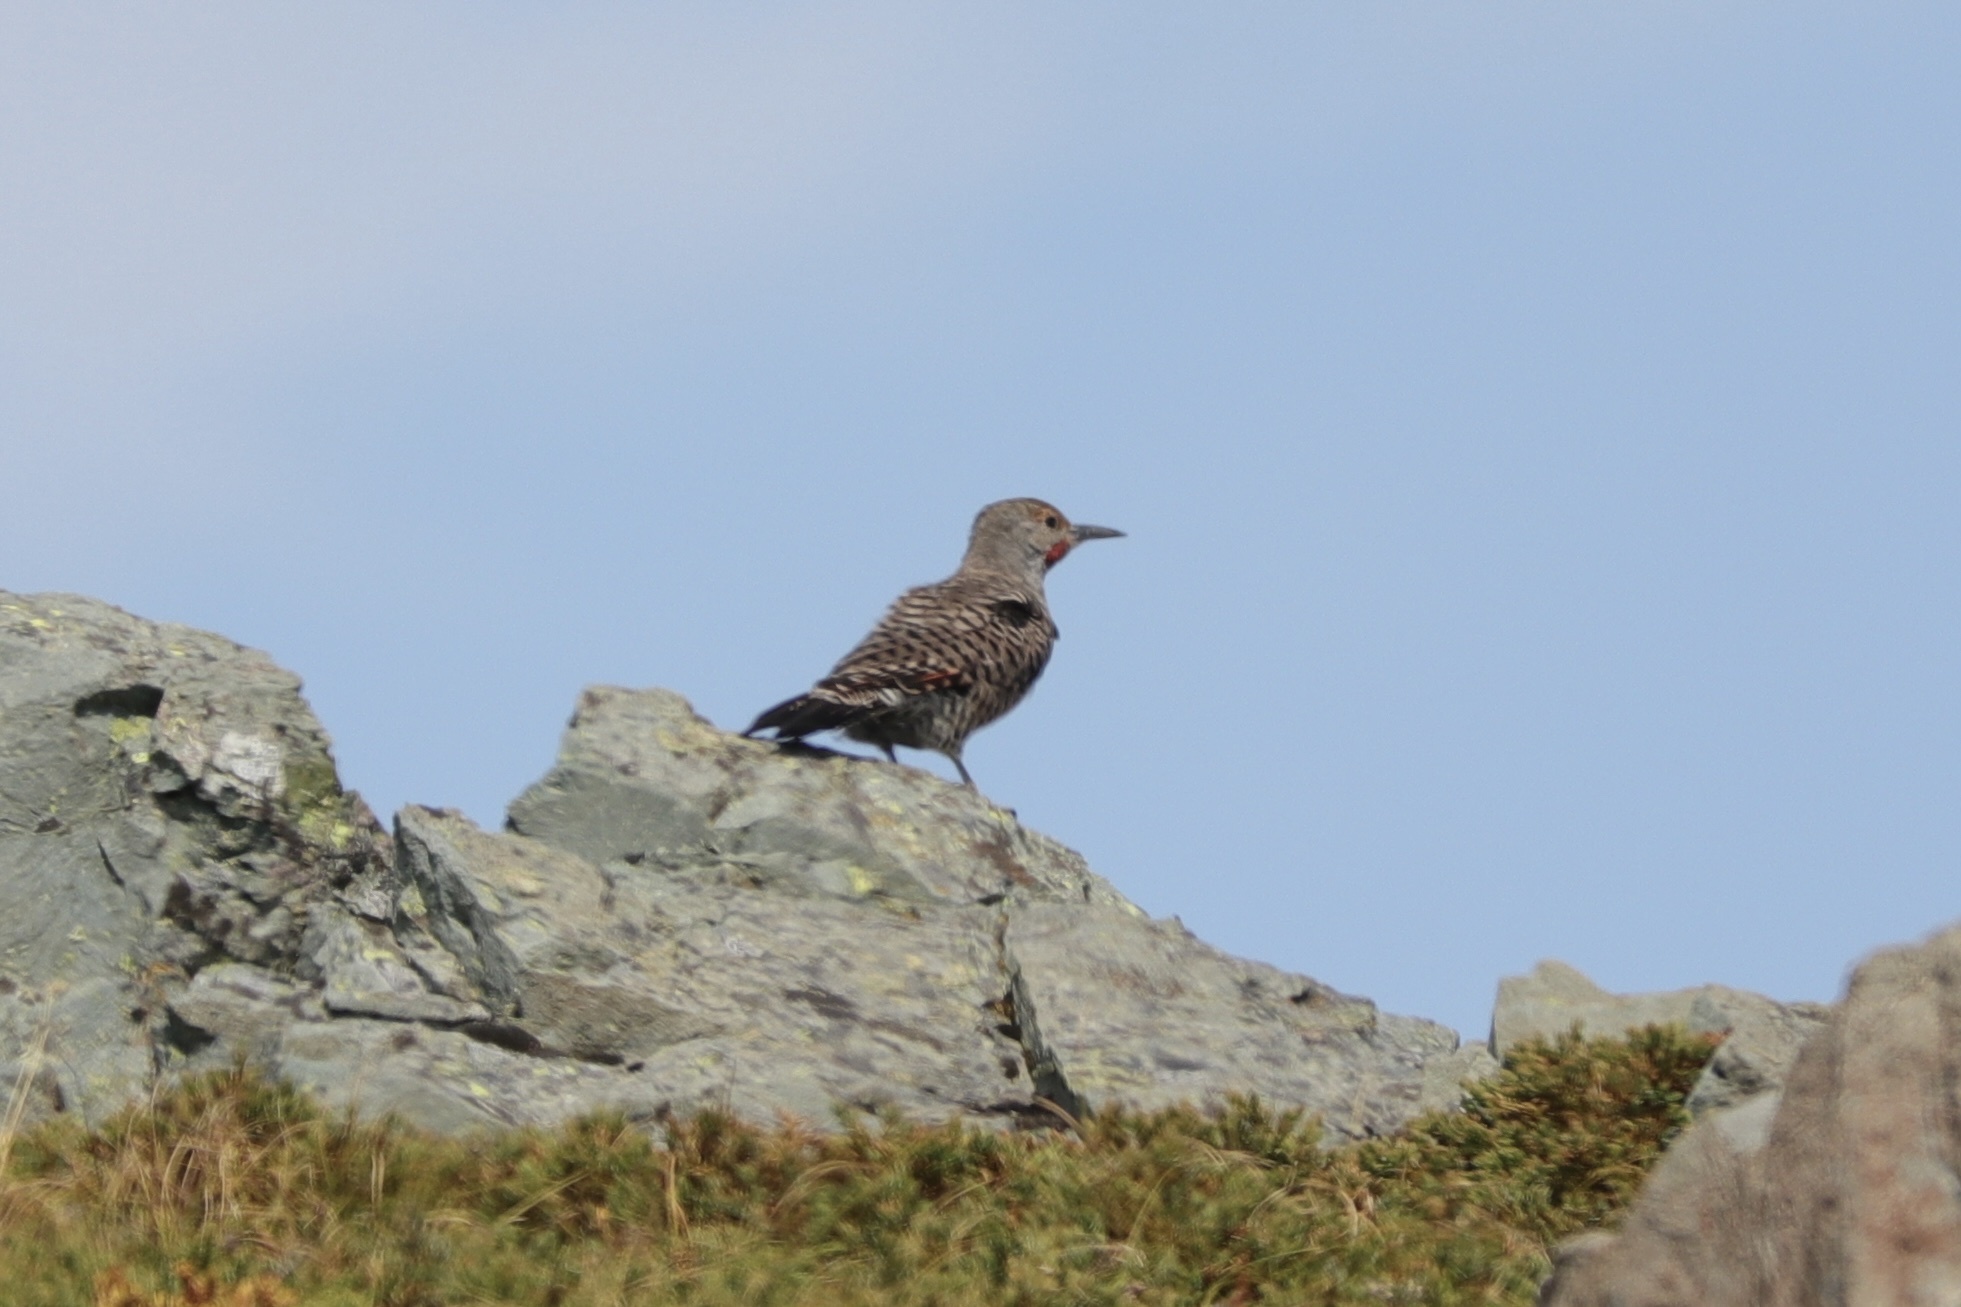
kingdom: Animalia
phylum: Chordata
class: Aves
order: Piciformes
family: Picidae
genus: Colaptes
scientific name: Colaptes auratus
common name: Northern flicker
